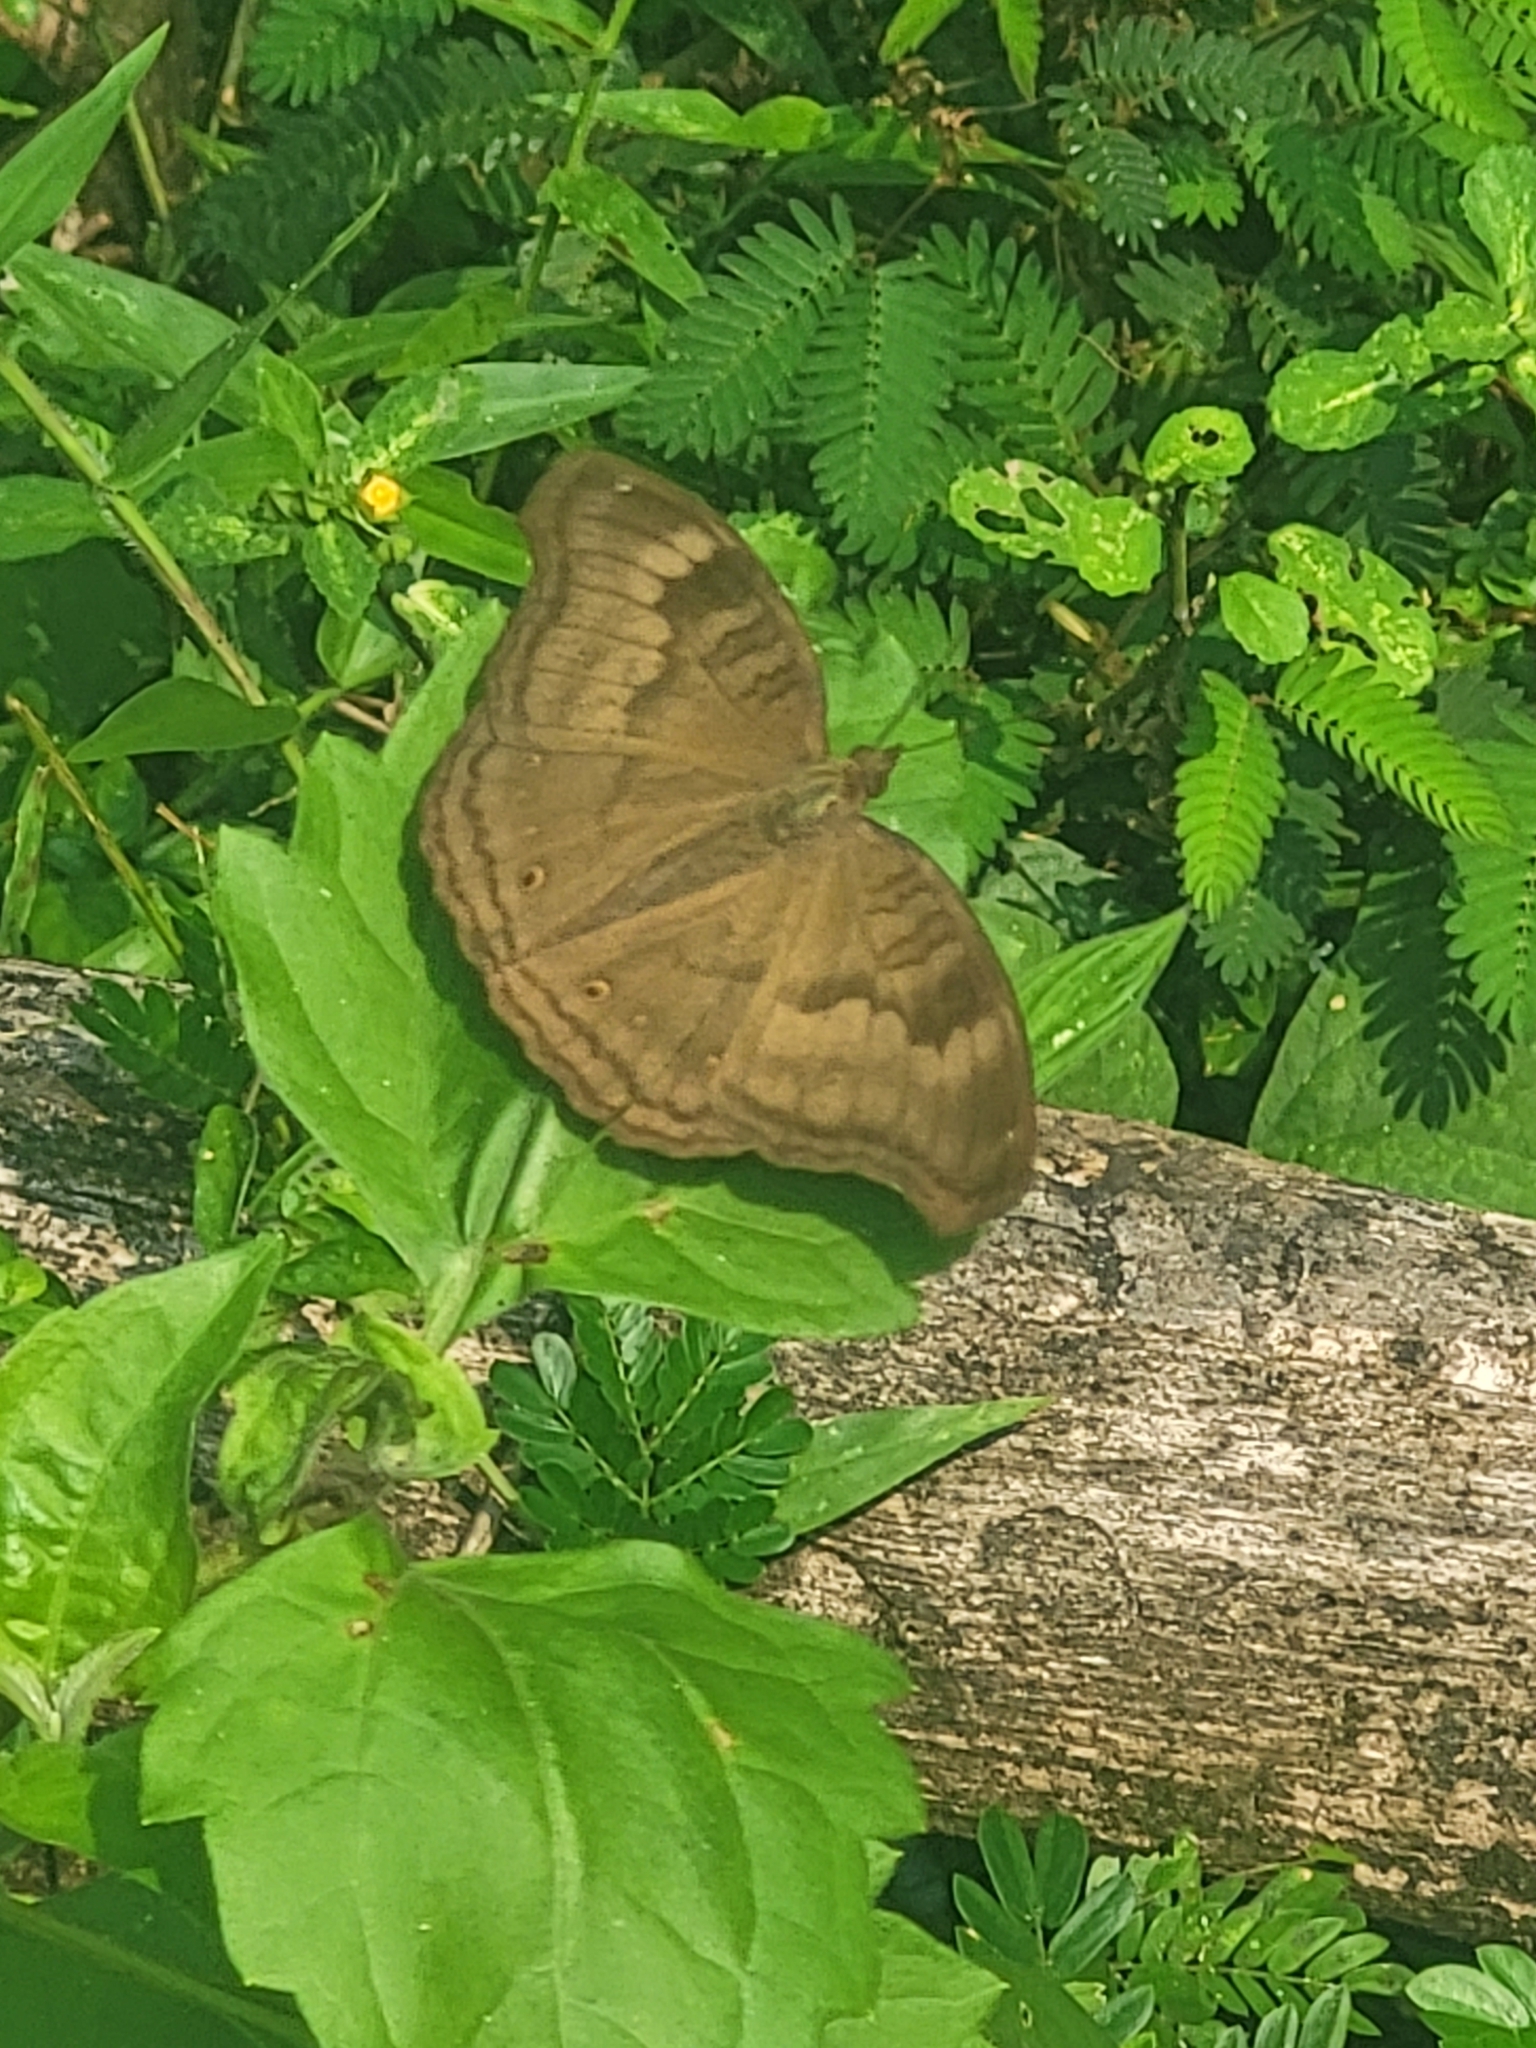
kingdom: Animalia
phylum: Arthropoda
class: Insecta
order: Lepidoptera
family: Nymphalidae
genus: Junonia
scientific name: Junonia iphita
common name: Chocolate pansy
